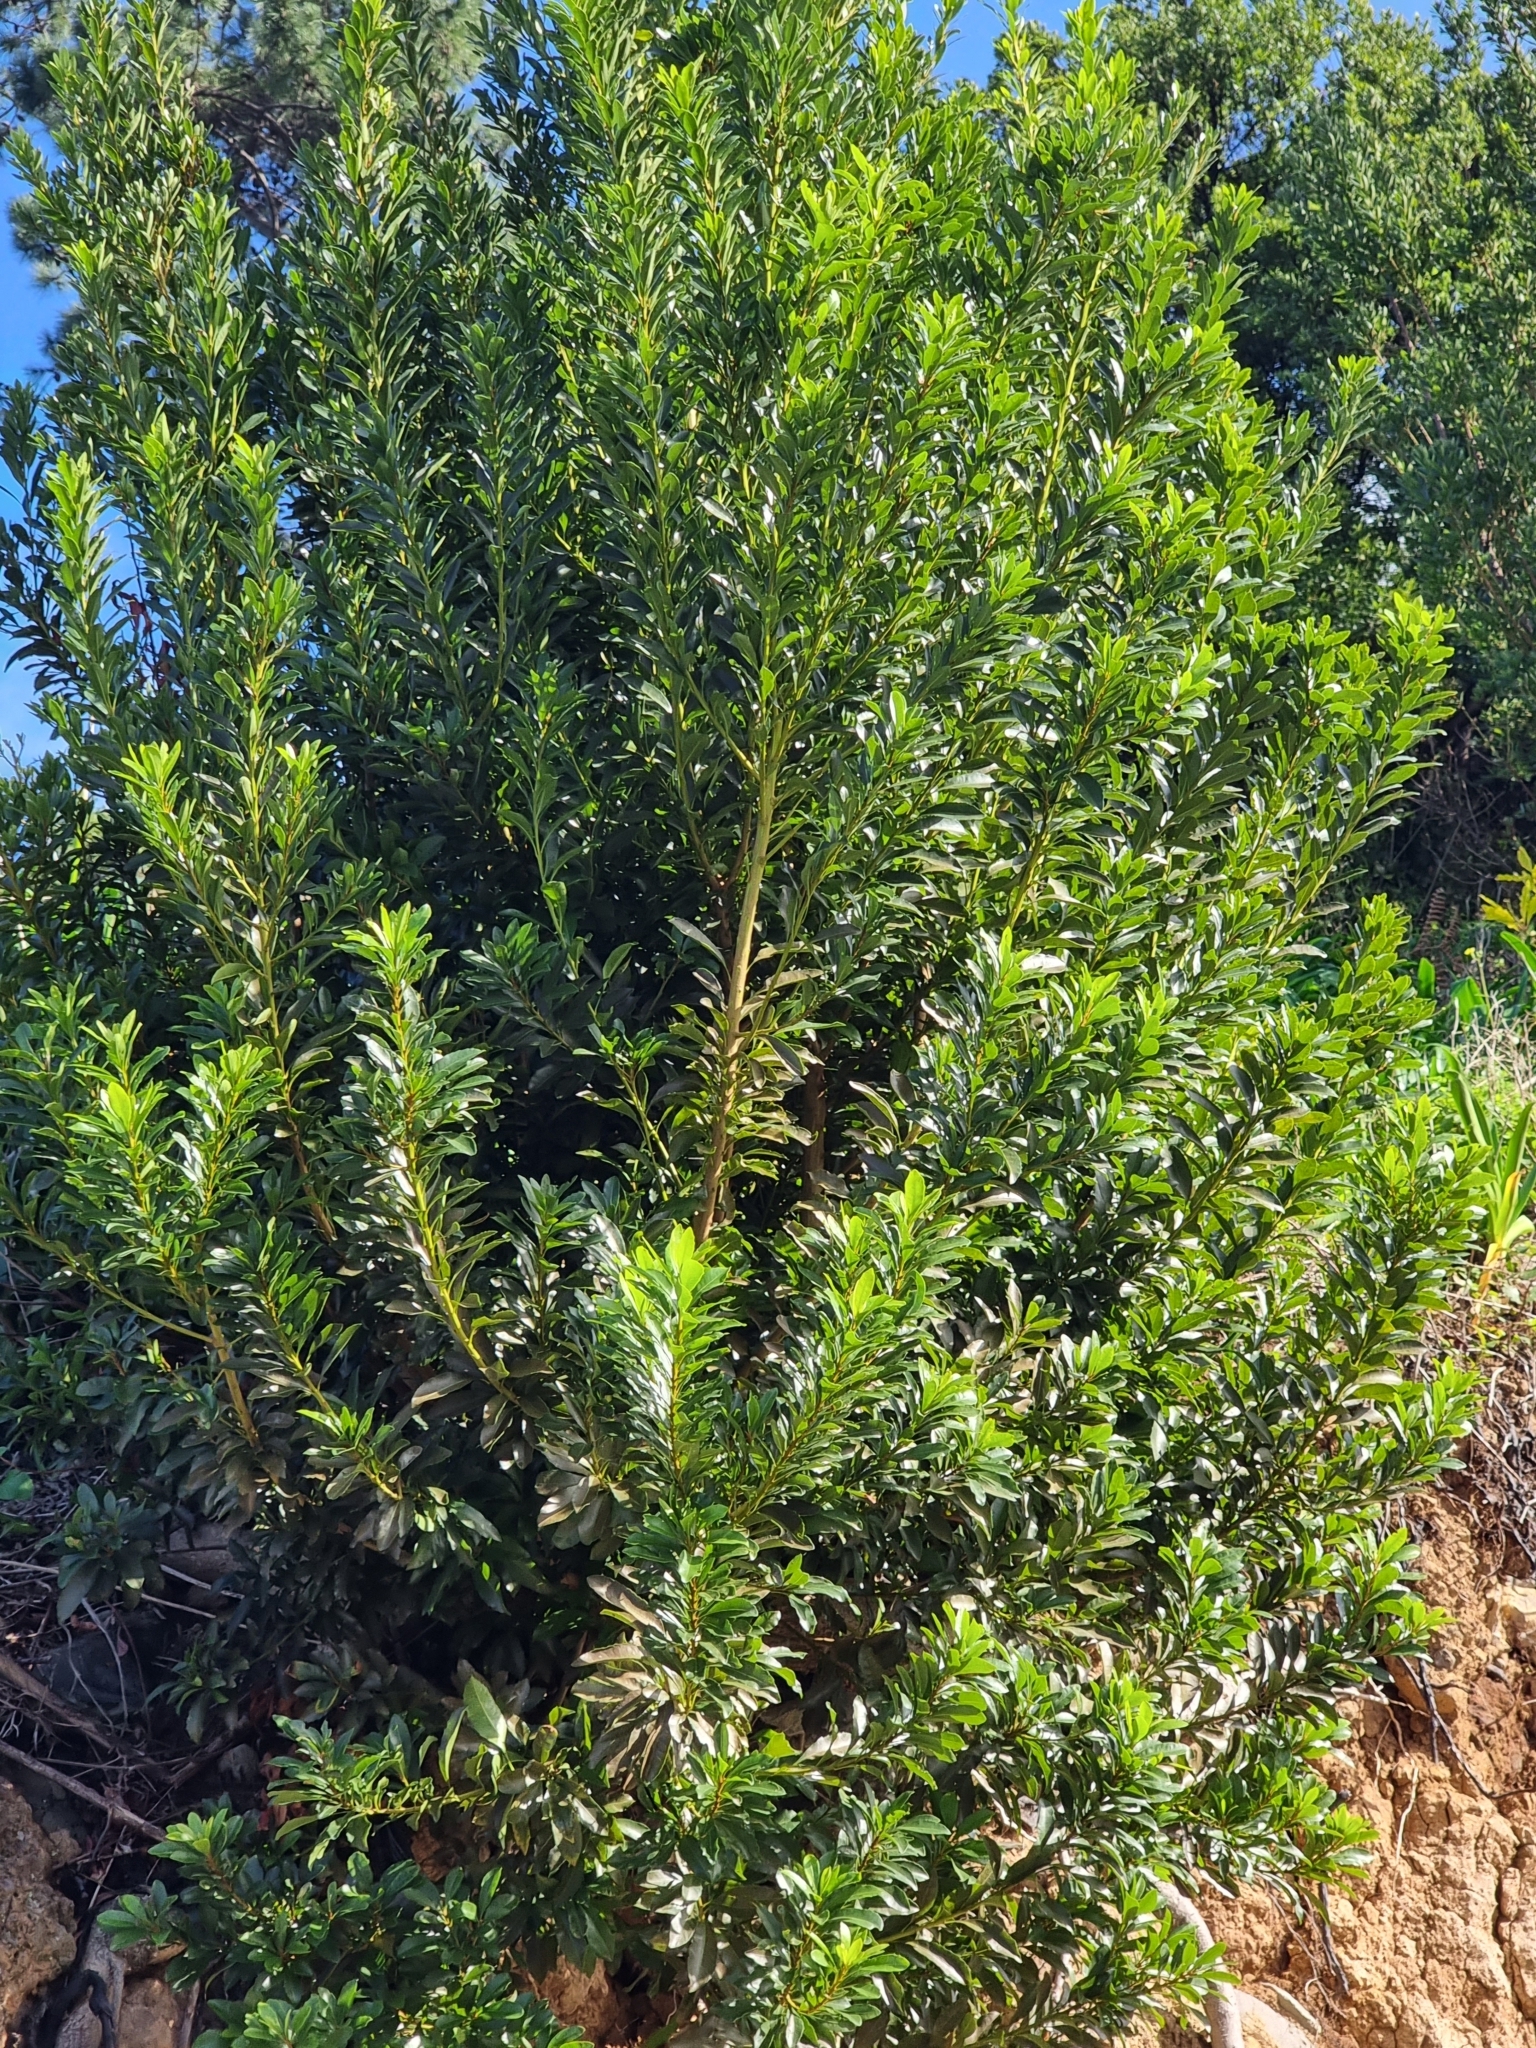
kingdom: Plantae
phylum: Tracheophyta
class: Magnoliopsida
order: Fagales
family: Myricaceae
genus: Morella
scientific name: Morella faya
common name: Firetree
